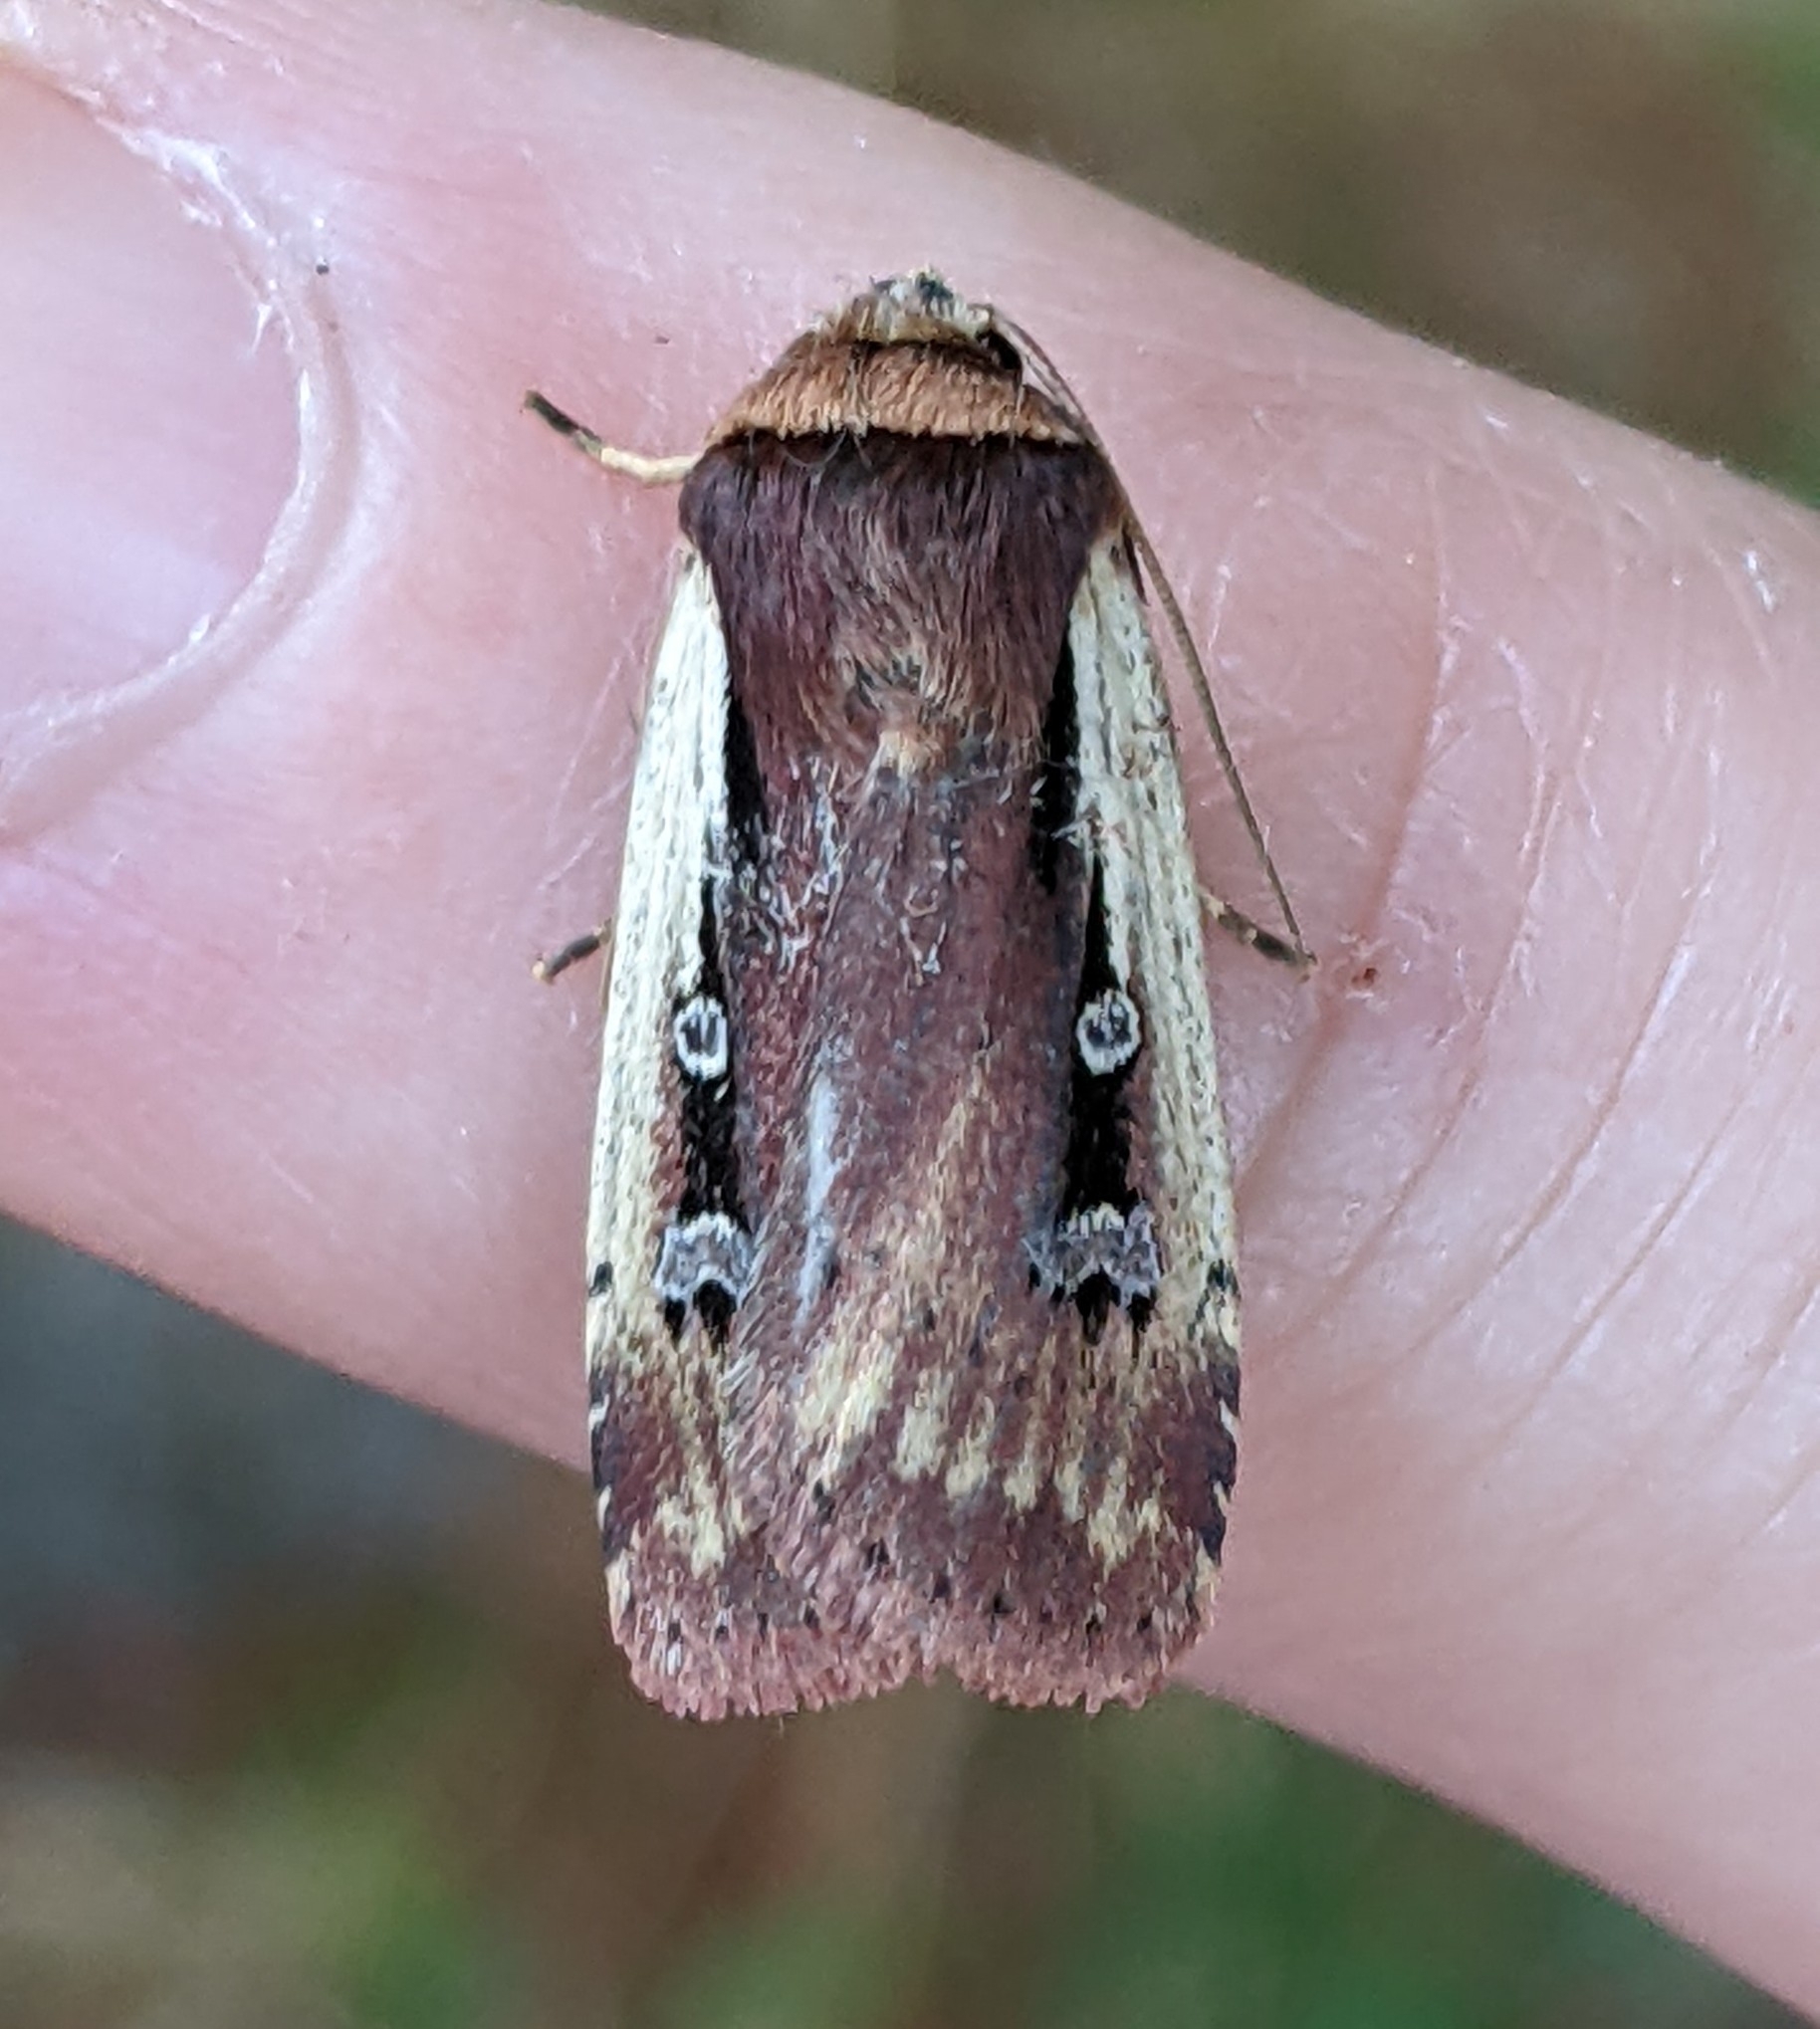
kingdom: Animalia
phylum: Arthropoda
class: Insecta
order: Lepidoptera
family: Noctuidae
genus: Ochropleura
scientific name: Ochropleura implecta
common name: Flame-shouldered dart
